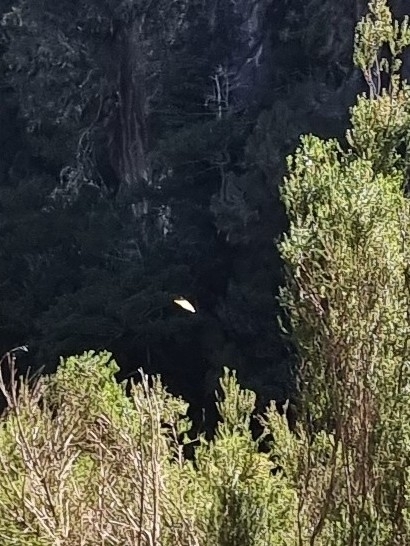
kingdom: Animalia
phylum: Arthropoda
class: Insecta
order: Lepidoptera
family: Pieridae
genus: Gonepteryx
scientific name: Gonepteryx maderensis
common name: Madeiran brimstone
